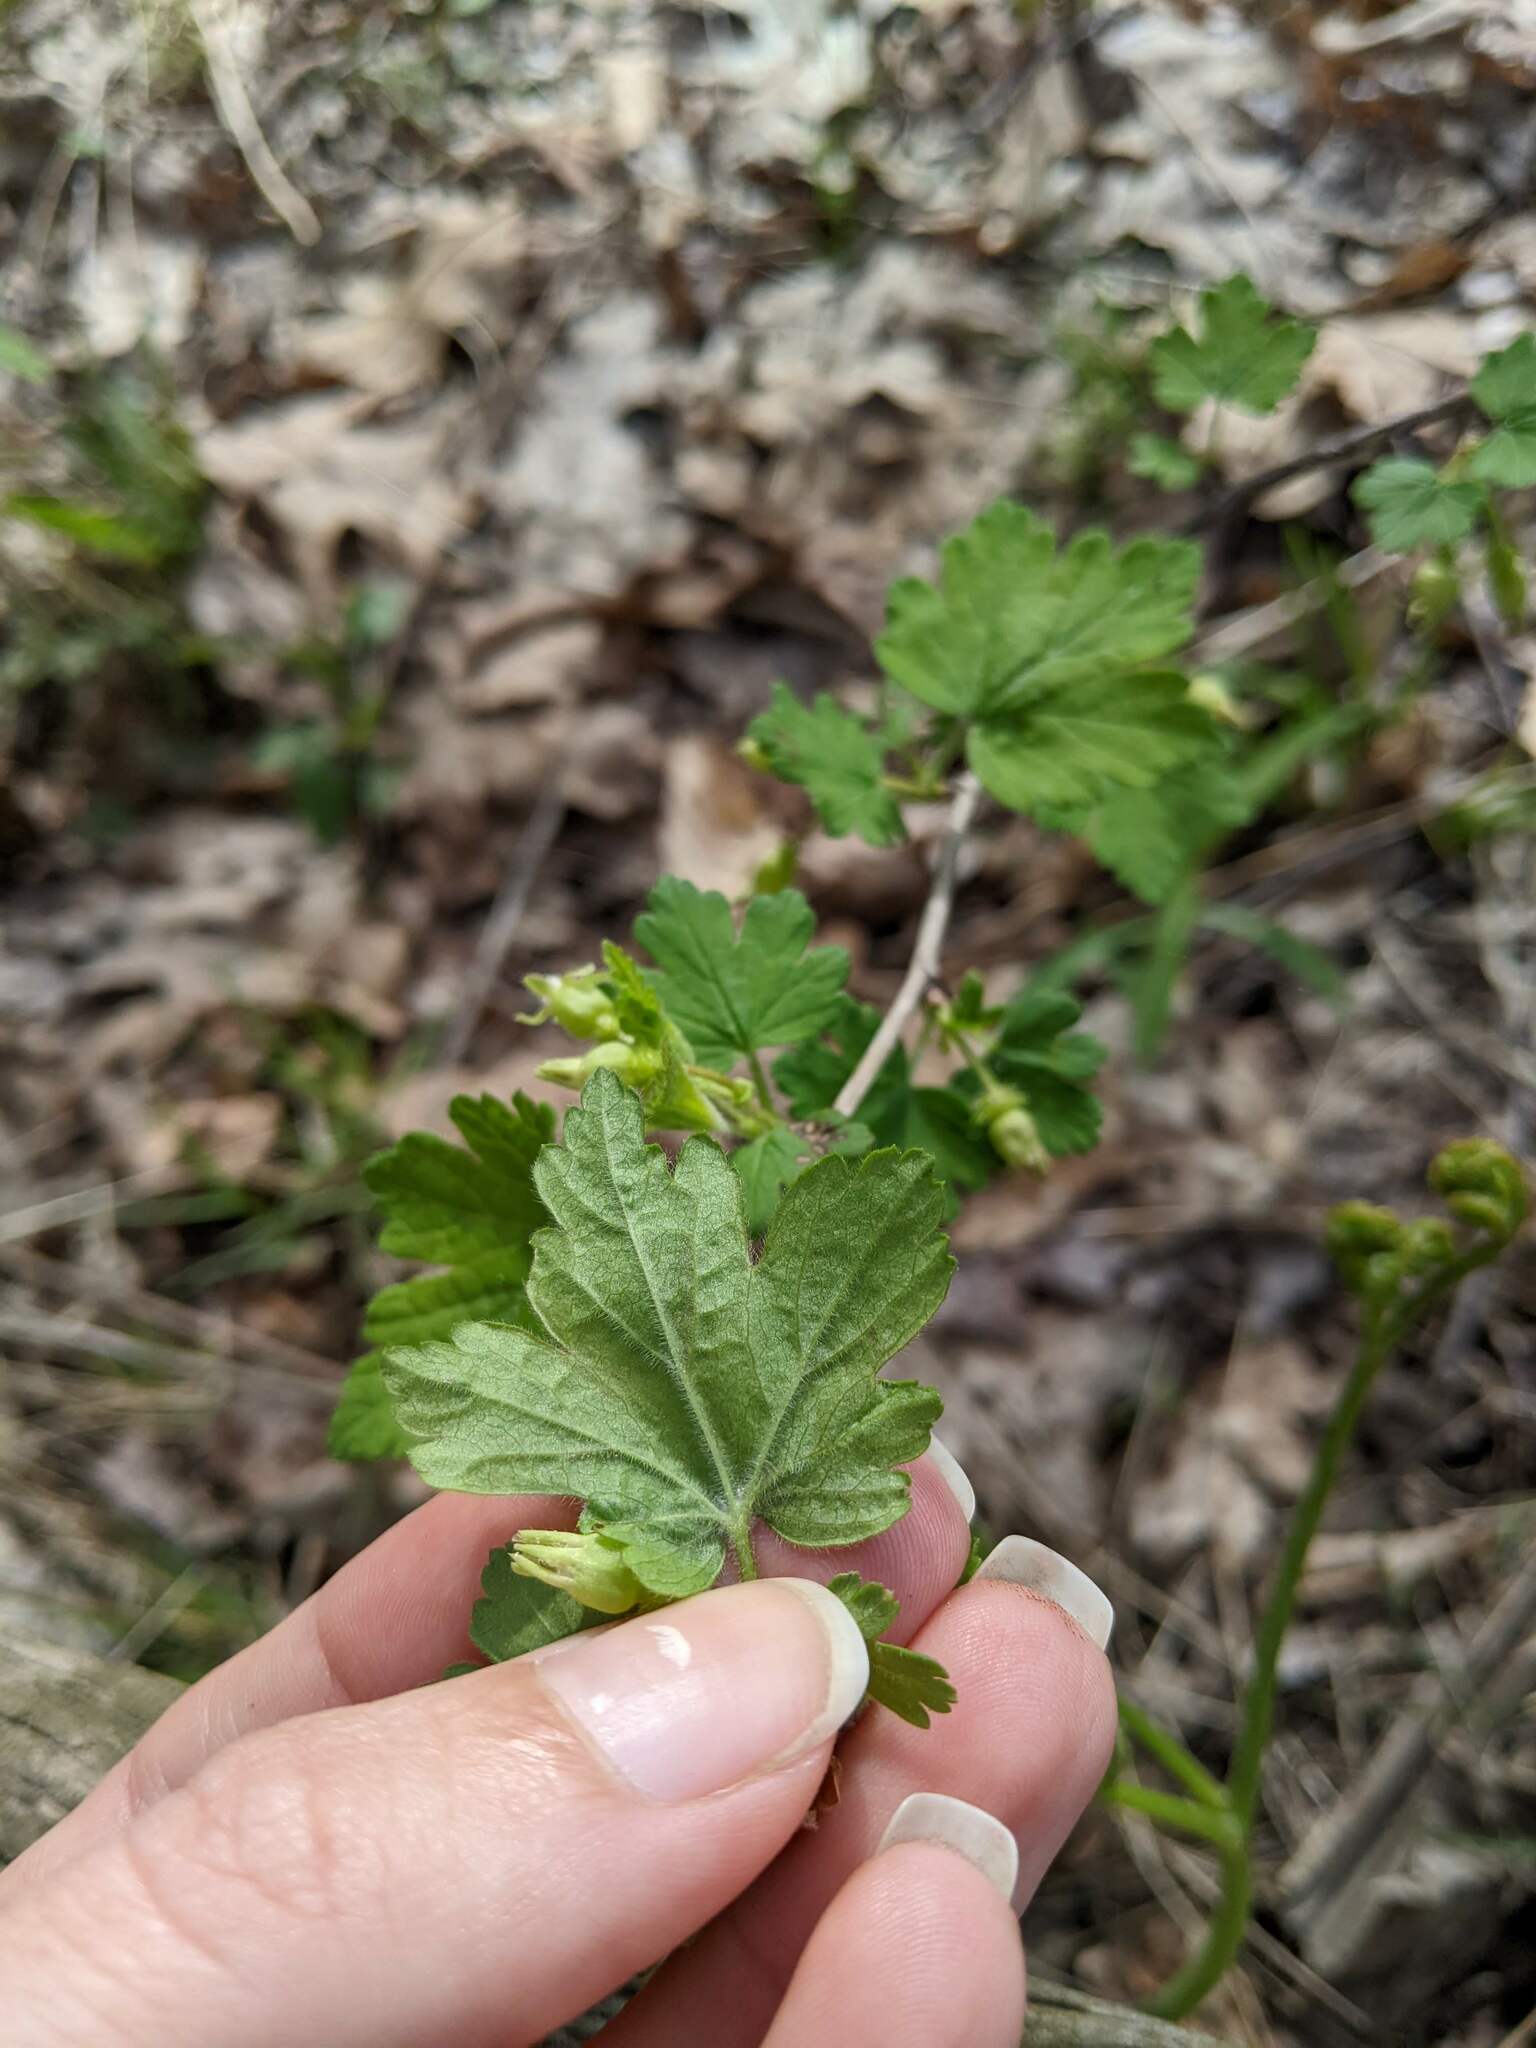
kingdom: Plantae
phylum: Tracheophyta
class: Magnoliopsida
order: Saxifragales
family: Grossulariaceae
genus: Ribes
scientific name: Ribes cynosbati
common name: American gooseberry
